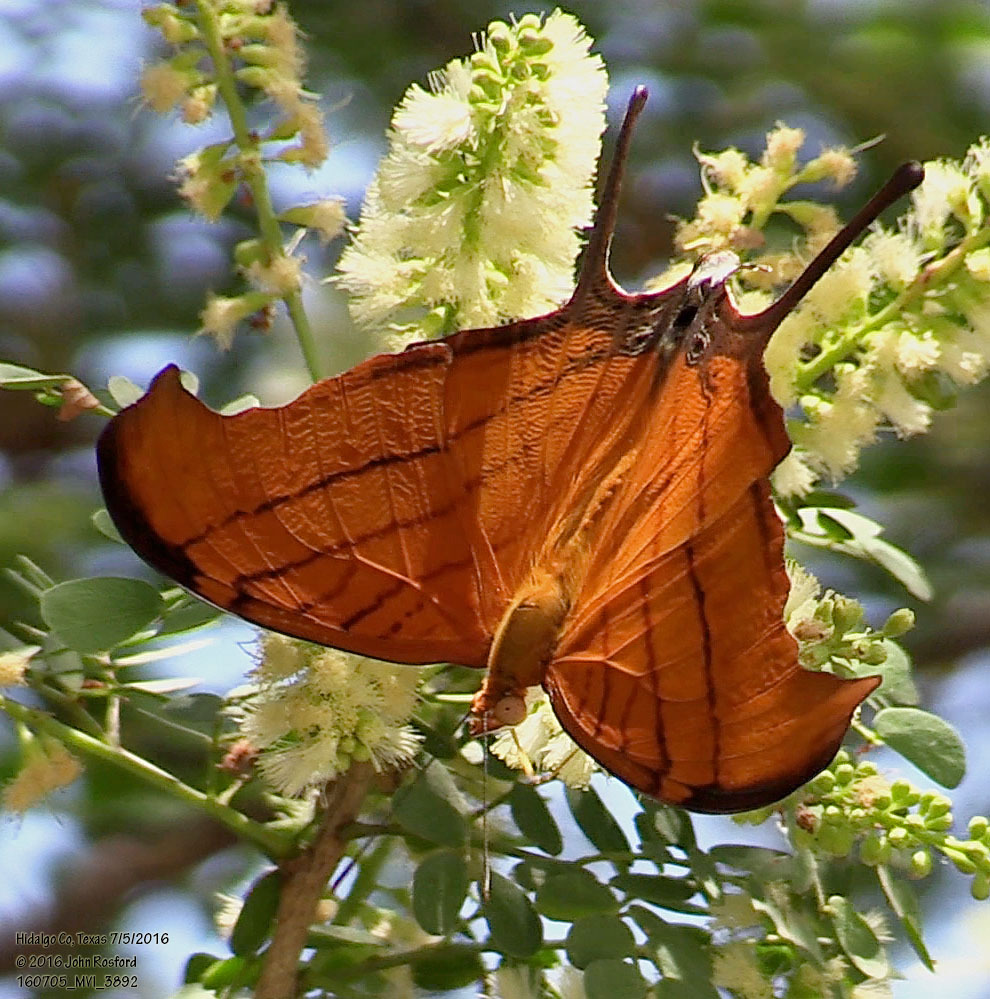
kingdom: Animalia
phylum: Arthropoda
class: Insecta
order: Lepidoptera
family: Nymphalidae
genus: Marpesia
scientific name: Marpesia petreus
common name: Red dagger wing
